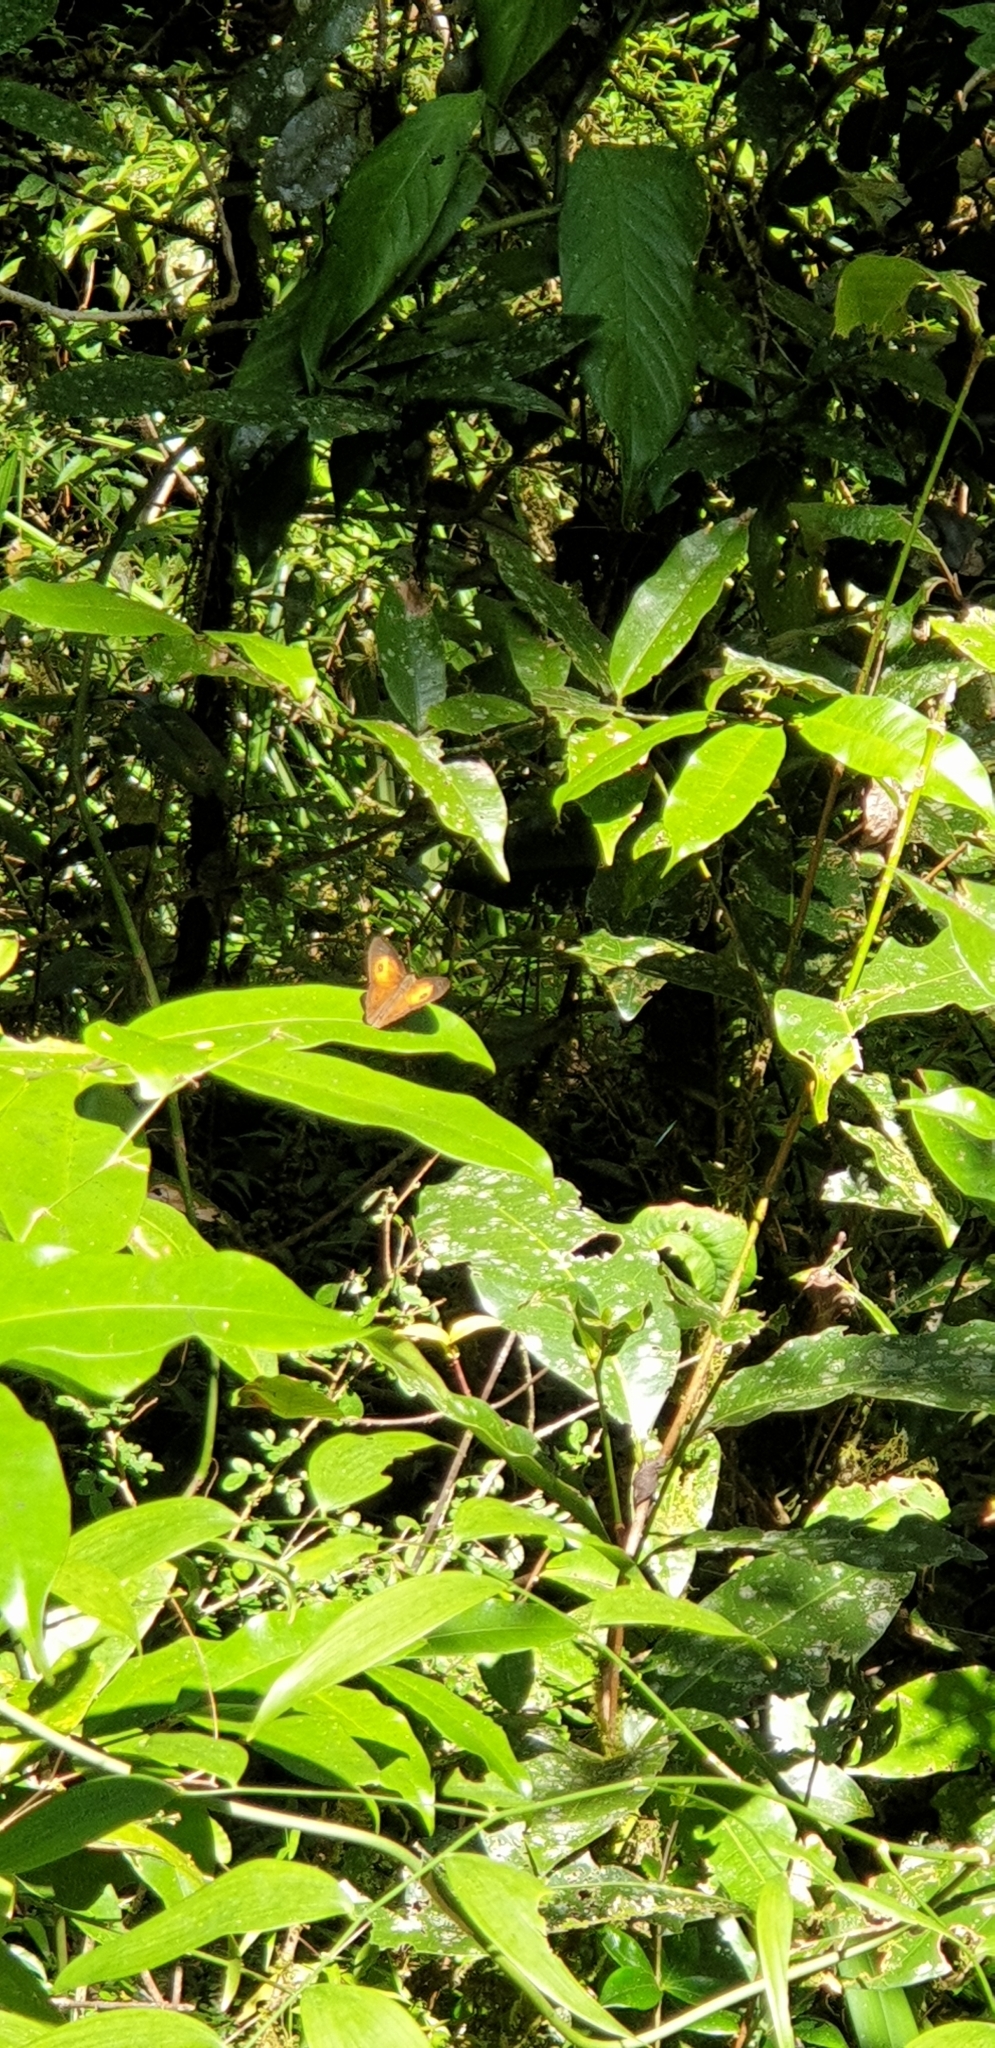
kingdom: Animalia
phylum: Arthropoda
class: Insecta
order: Lepidoptera
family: Nymphalidae
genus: Mycalesis
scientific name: Mycalesis terminus
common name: Orange bushbrown
